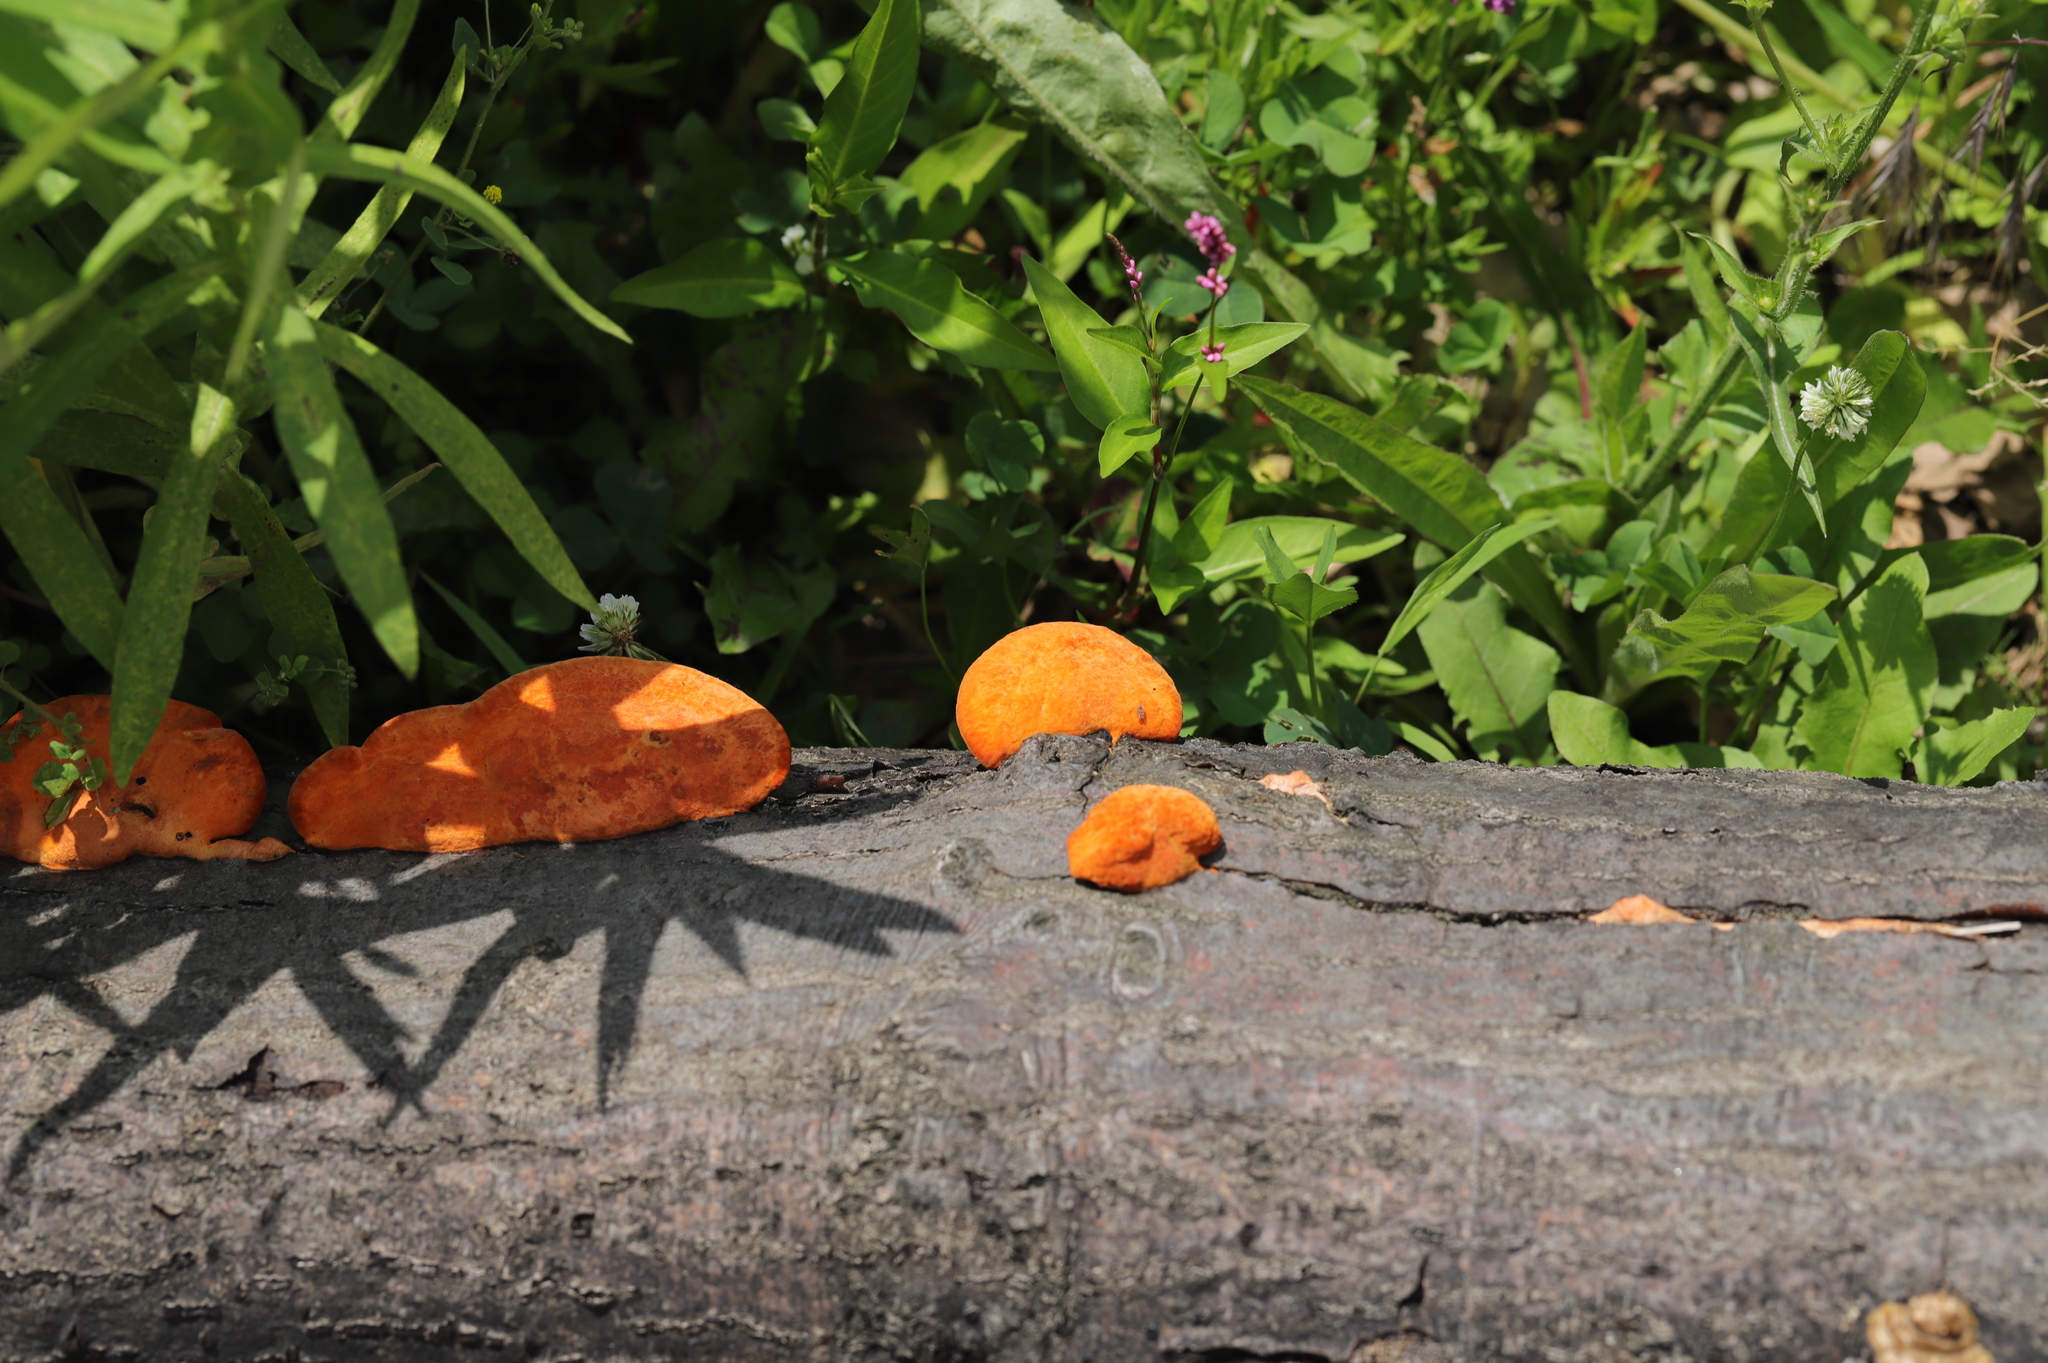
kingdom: Fungi
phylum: Basidiomycota
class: Agaricomycetes
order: Polyporales
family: Polyporaceae
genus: Trametes
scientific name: Trametes cinnabarina
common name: Northern cinnabar polypore
